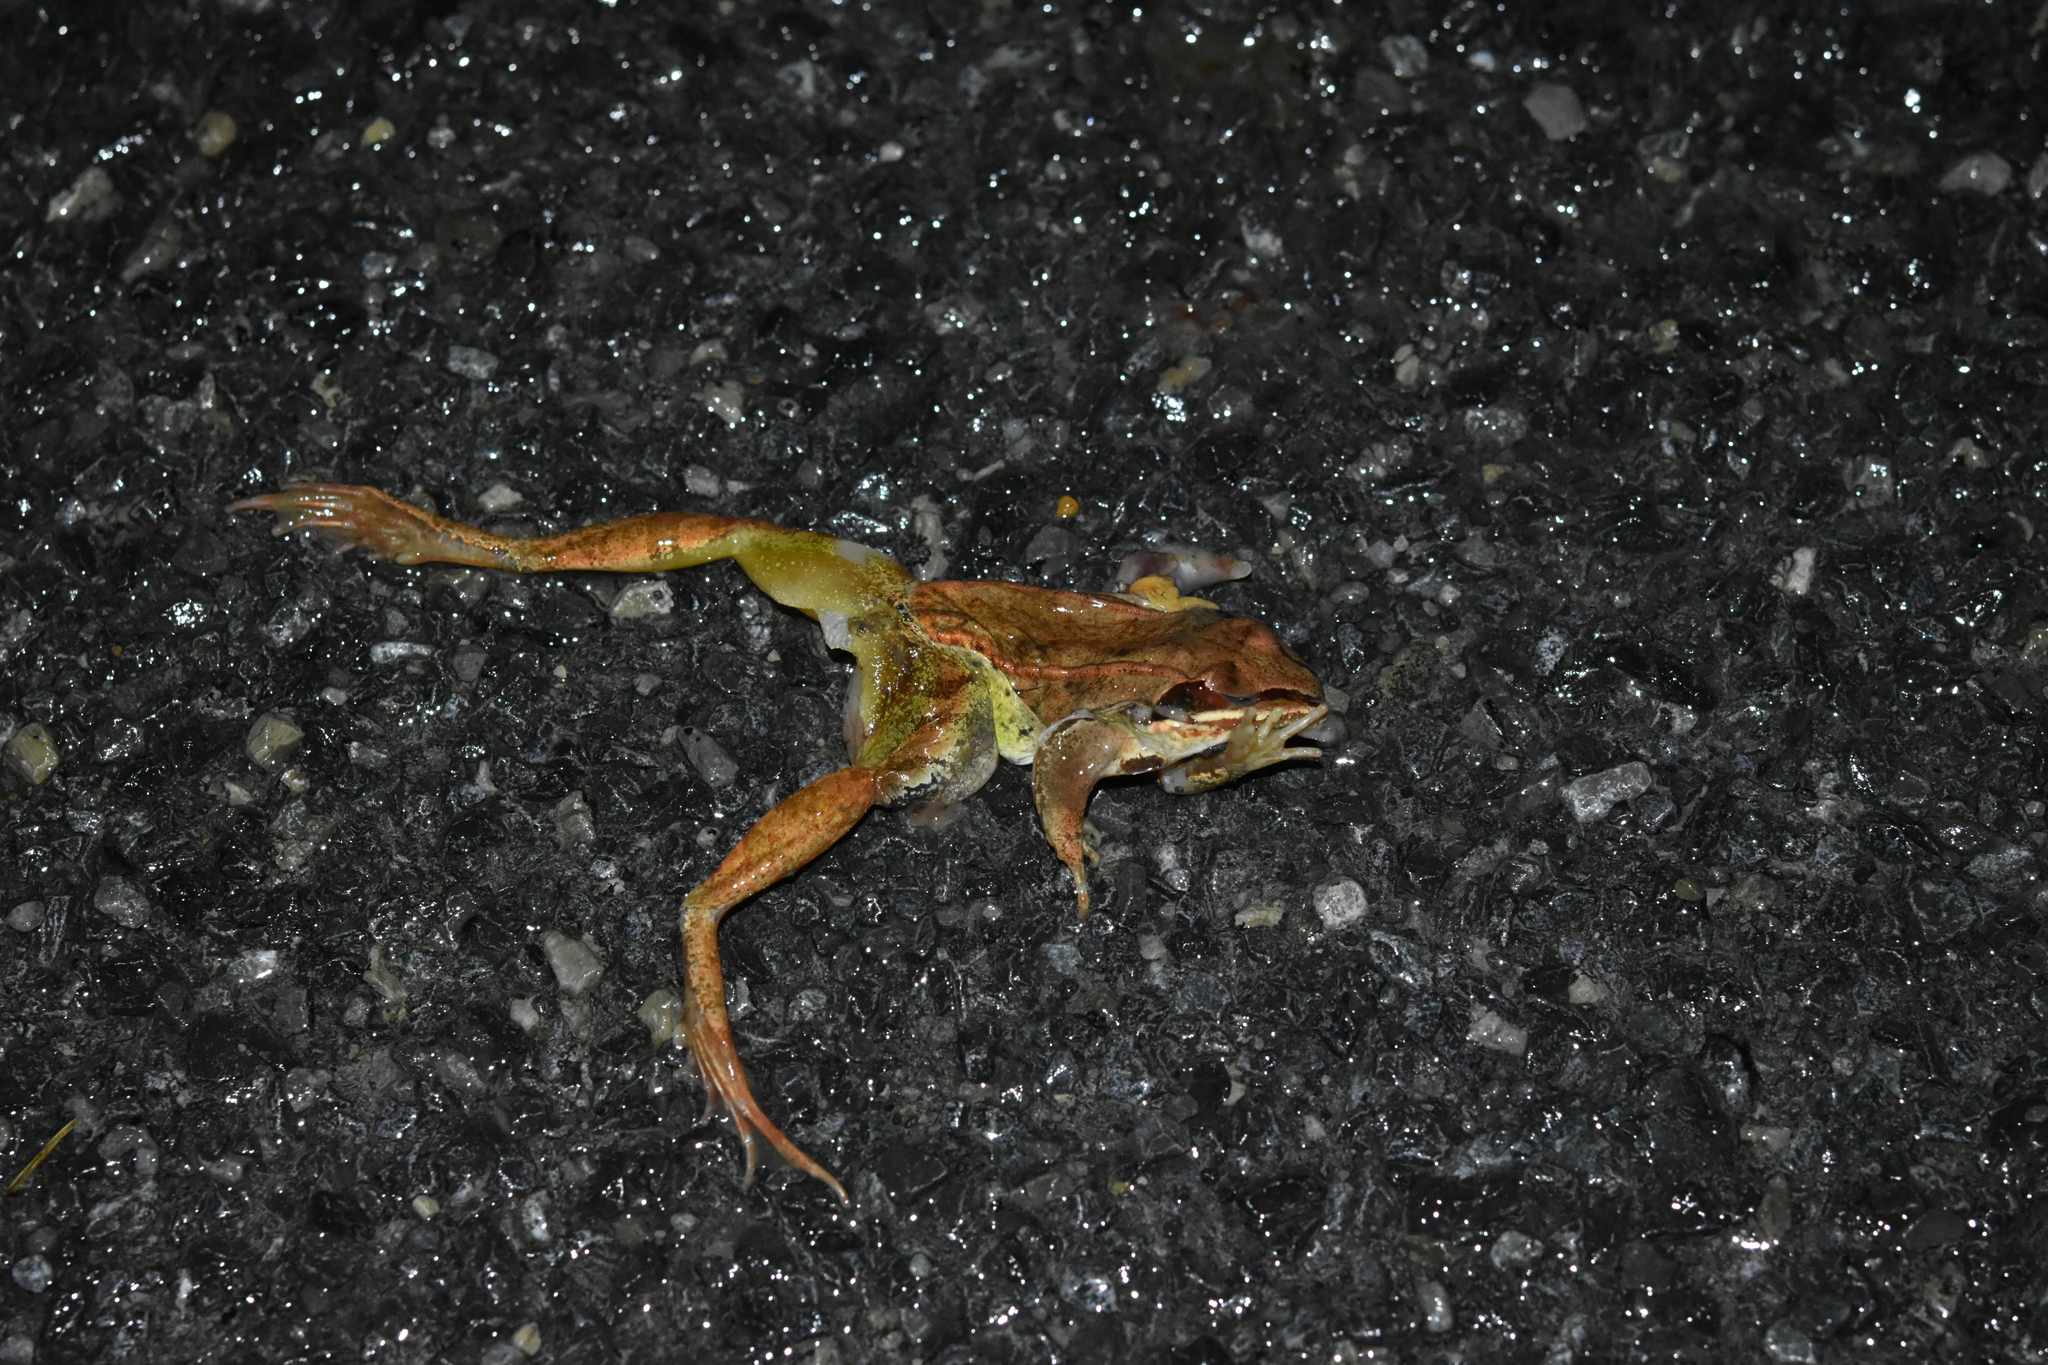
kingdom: Animalia
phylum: Chordata
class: Amphibia
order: Anura
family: Ranidae
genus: Lithobates
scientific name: Lithobates sylvaticus
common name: Wood frog
